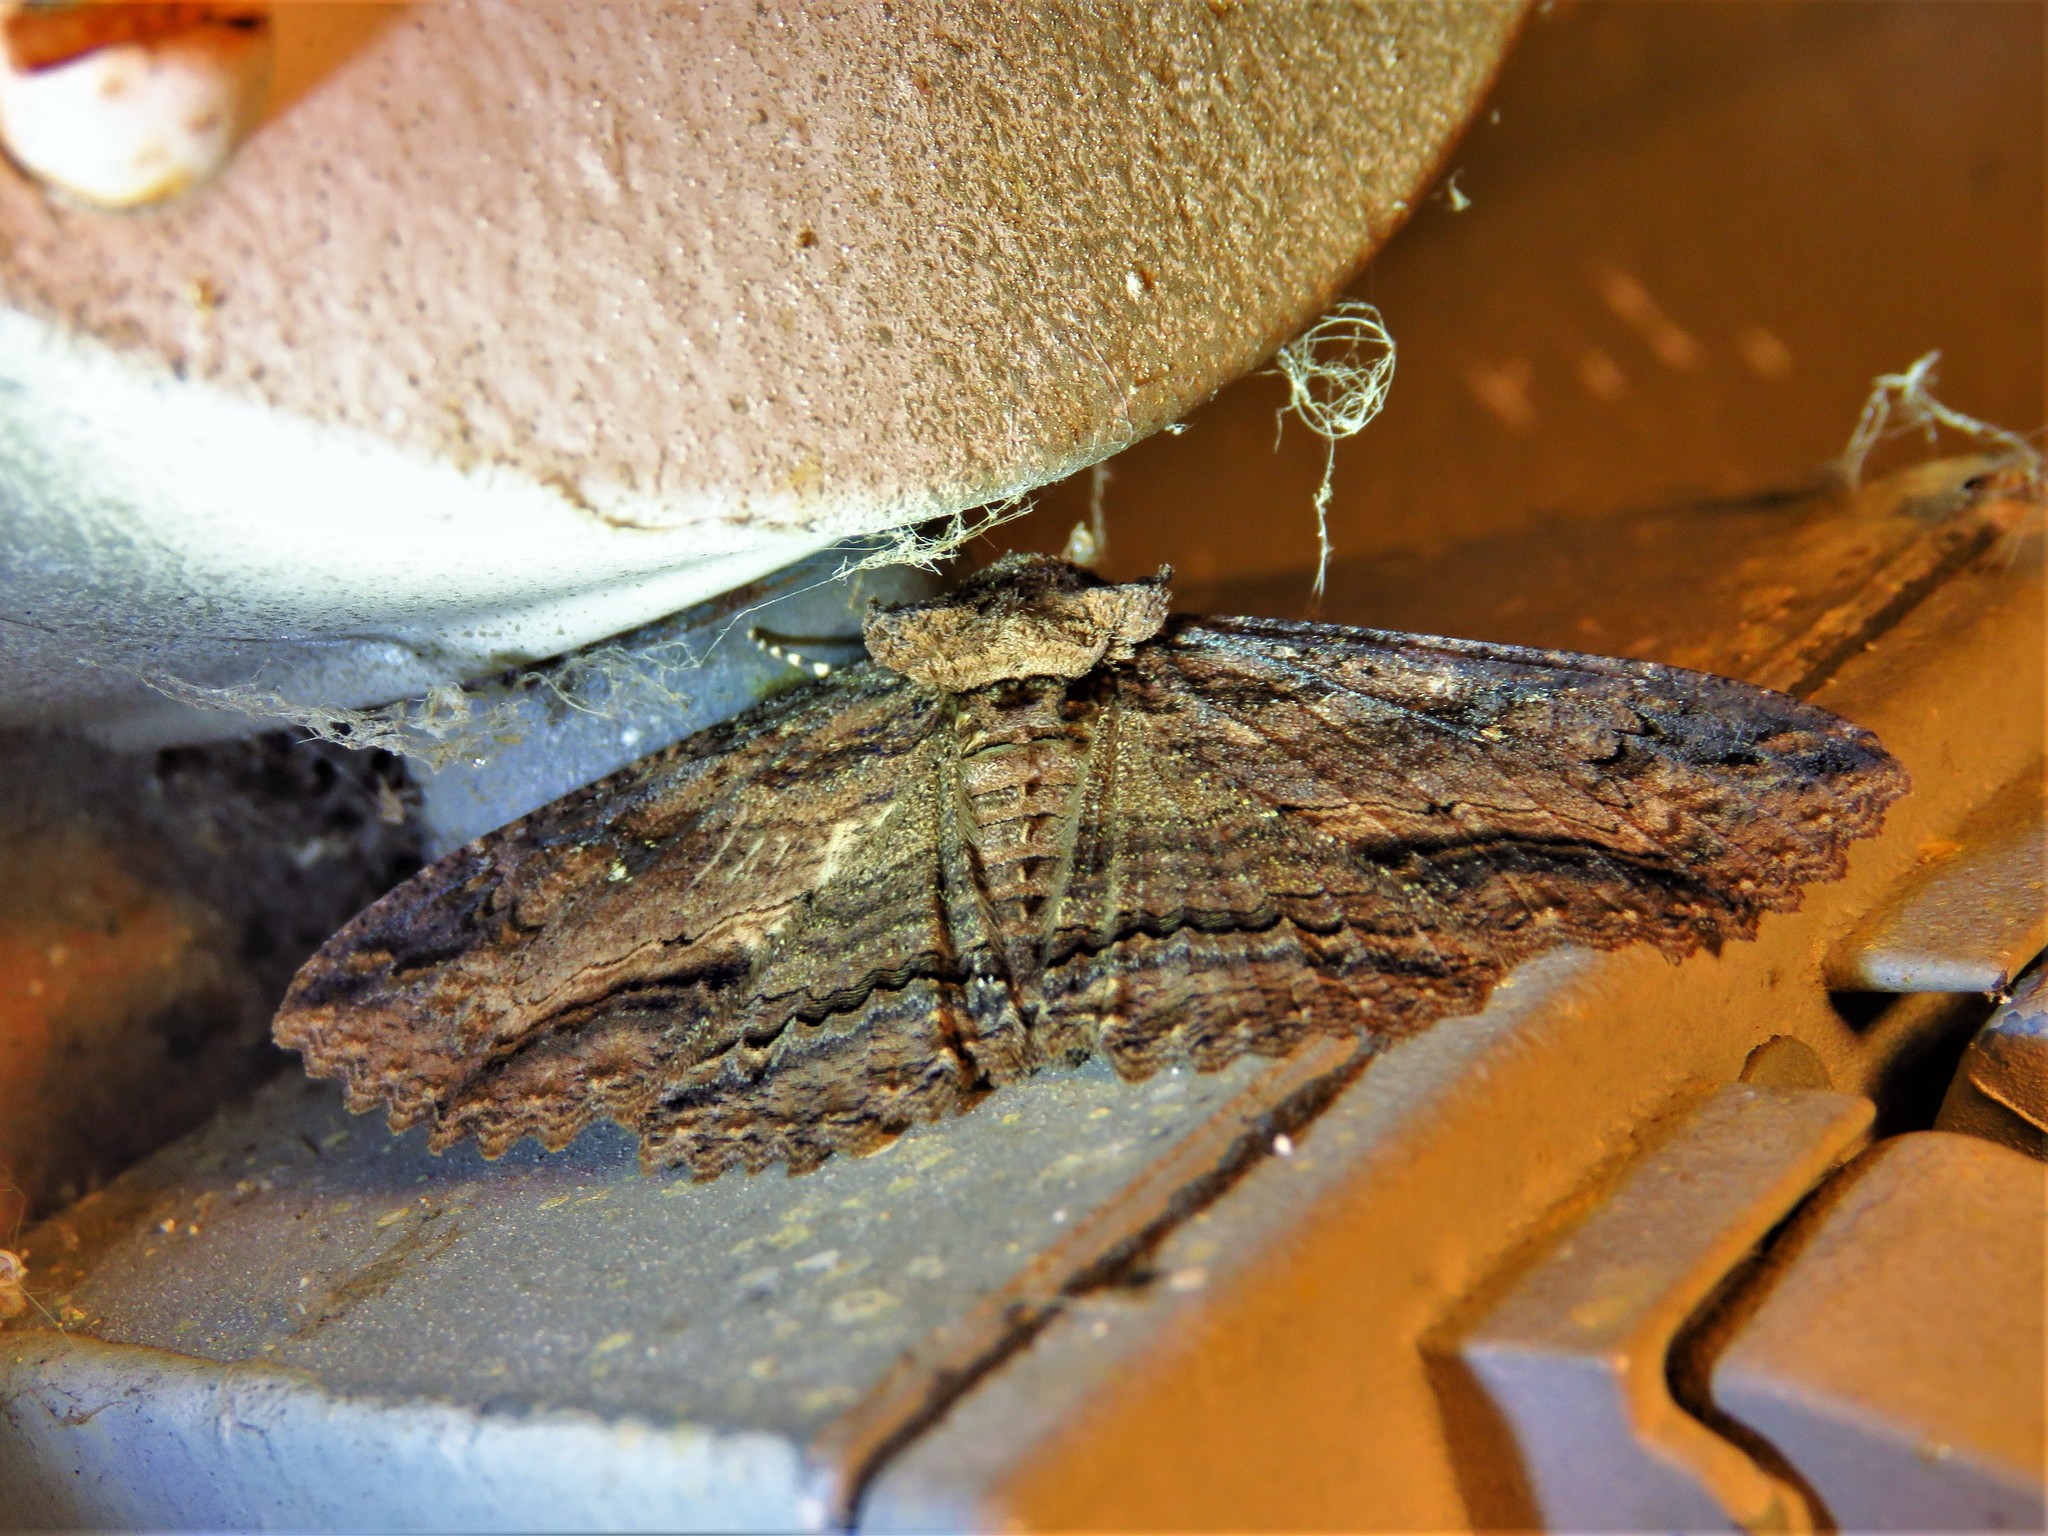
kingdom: Animalia
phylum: Arthropoda
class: Insecta
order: Lepidoptera
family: Erebidae
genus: Zale
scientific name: Zale lunata
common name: Lunate zale moth
